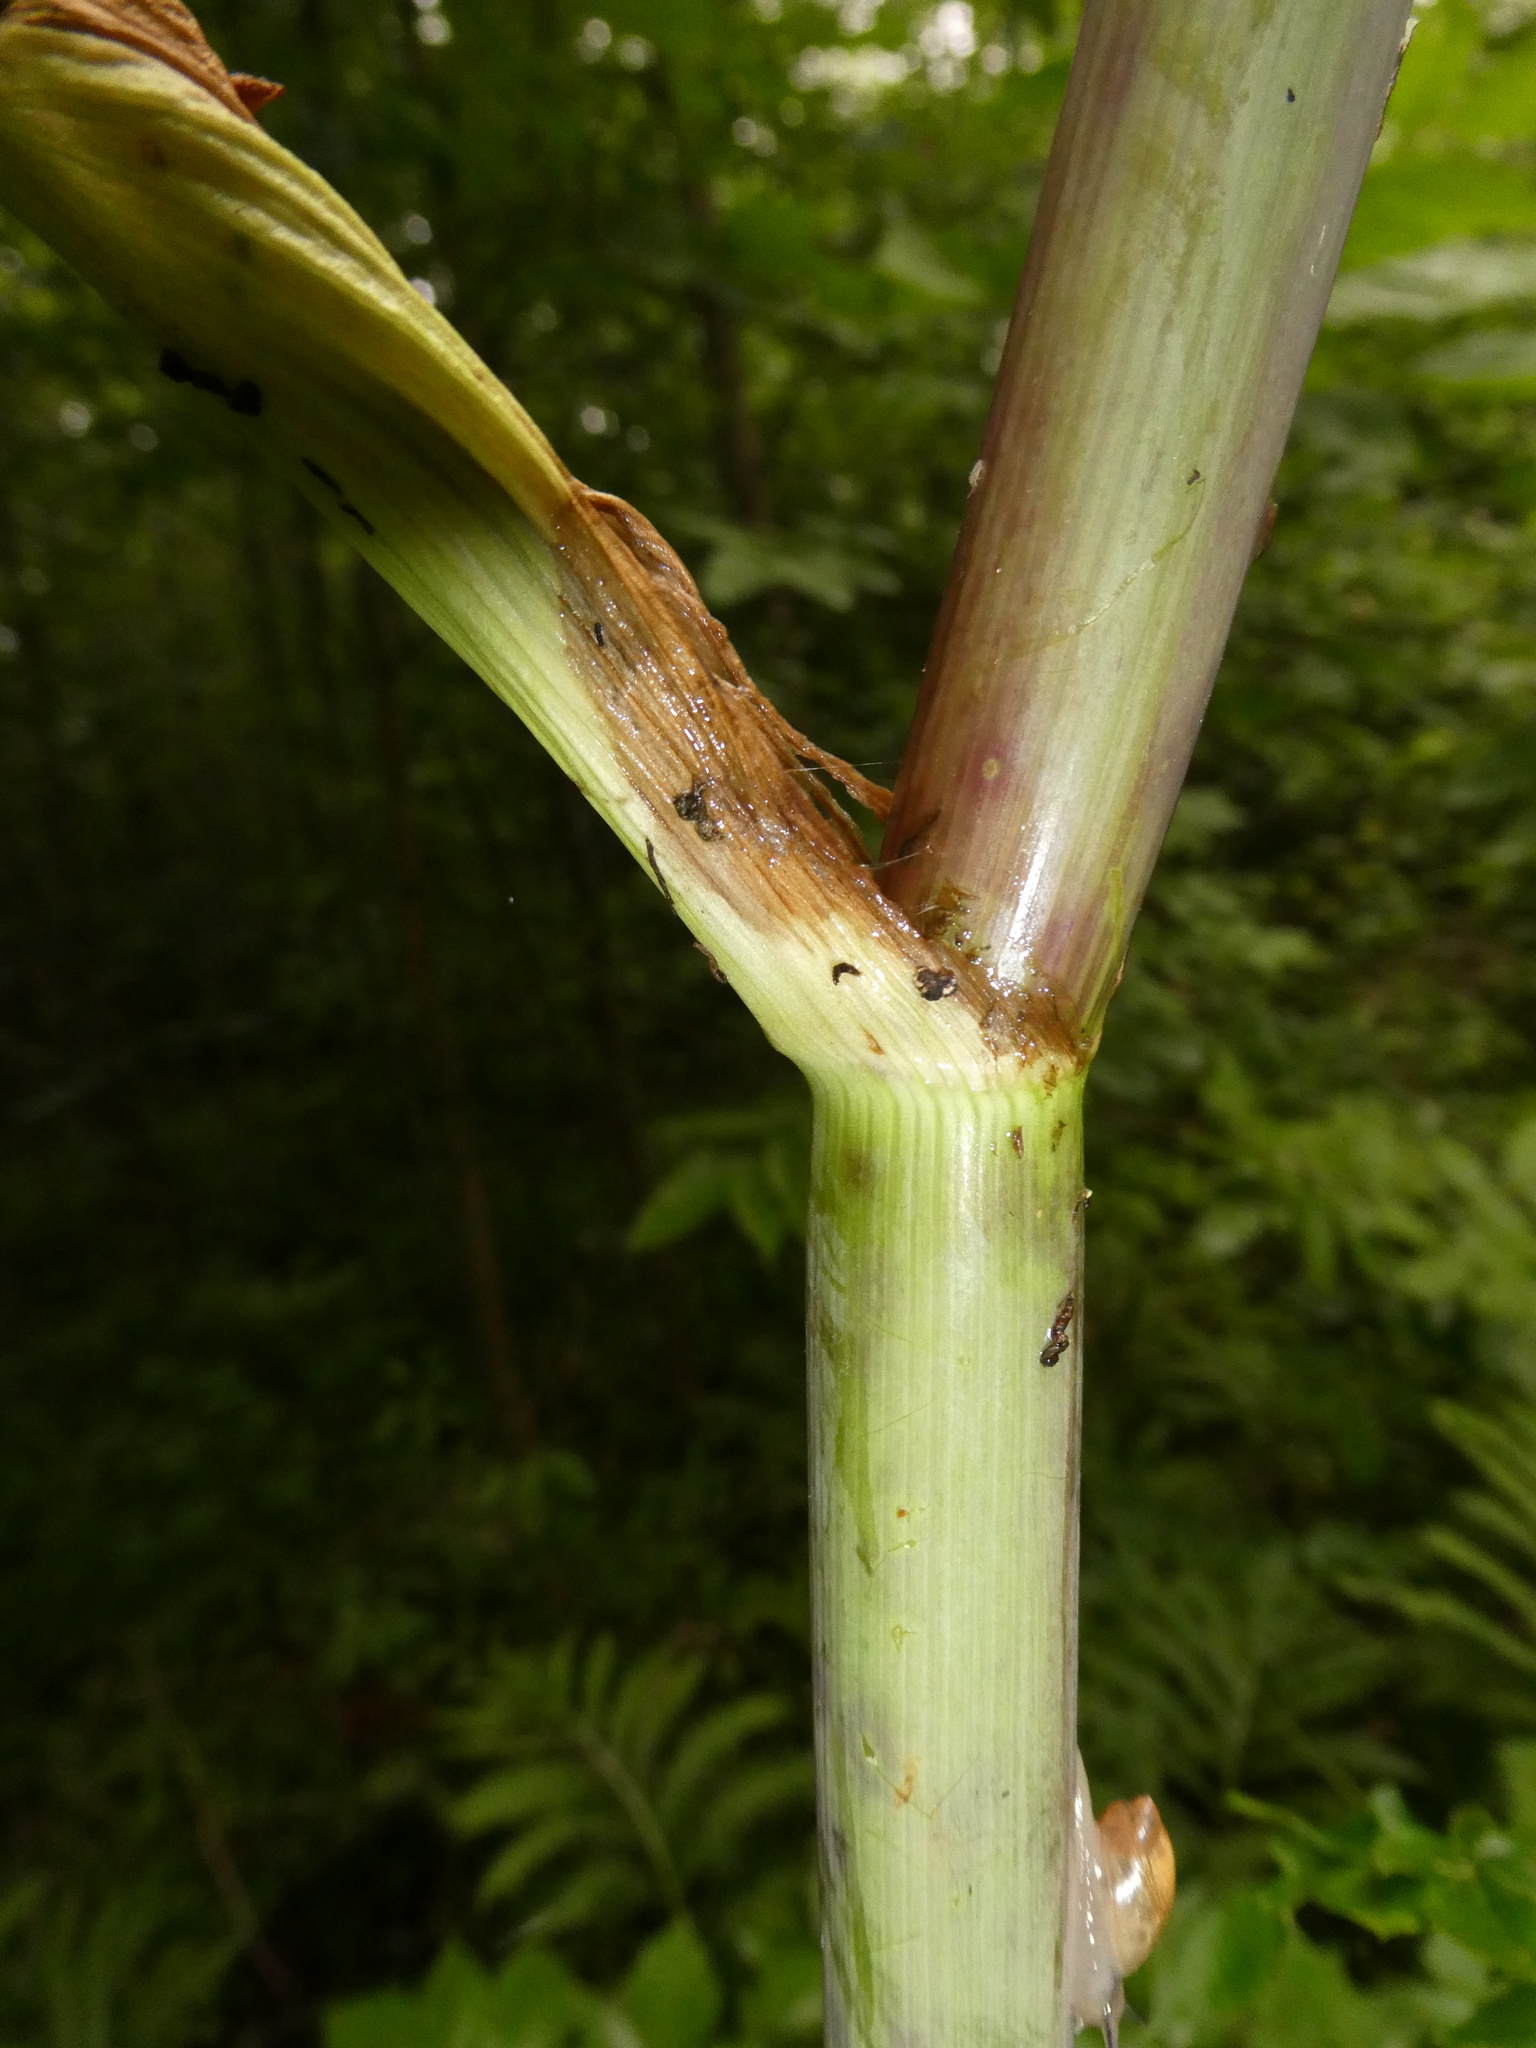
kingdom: Plantae
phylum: Tracheophyta
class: Magnoliopsida
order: Apiales
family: Apiaceae
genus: Angelica
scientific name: Angelica atropurpurea
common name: Great angelica
